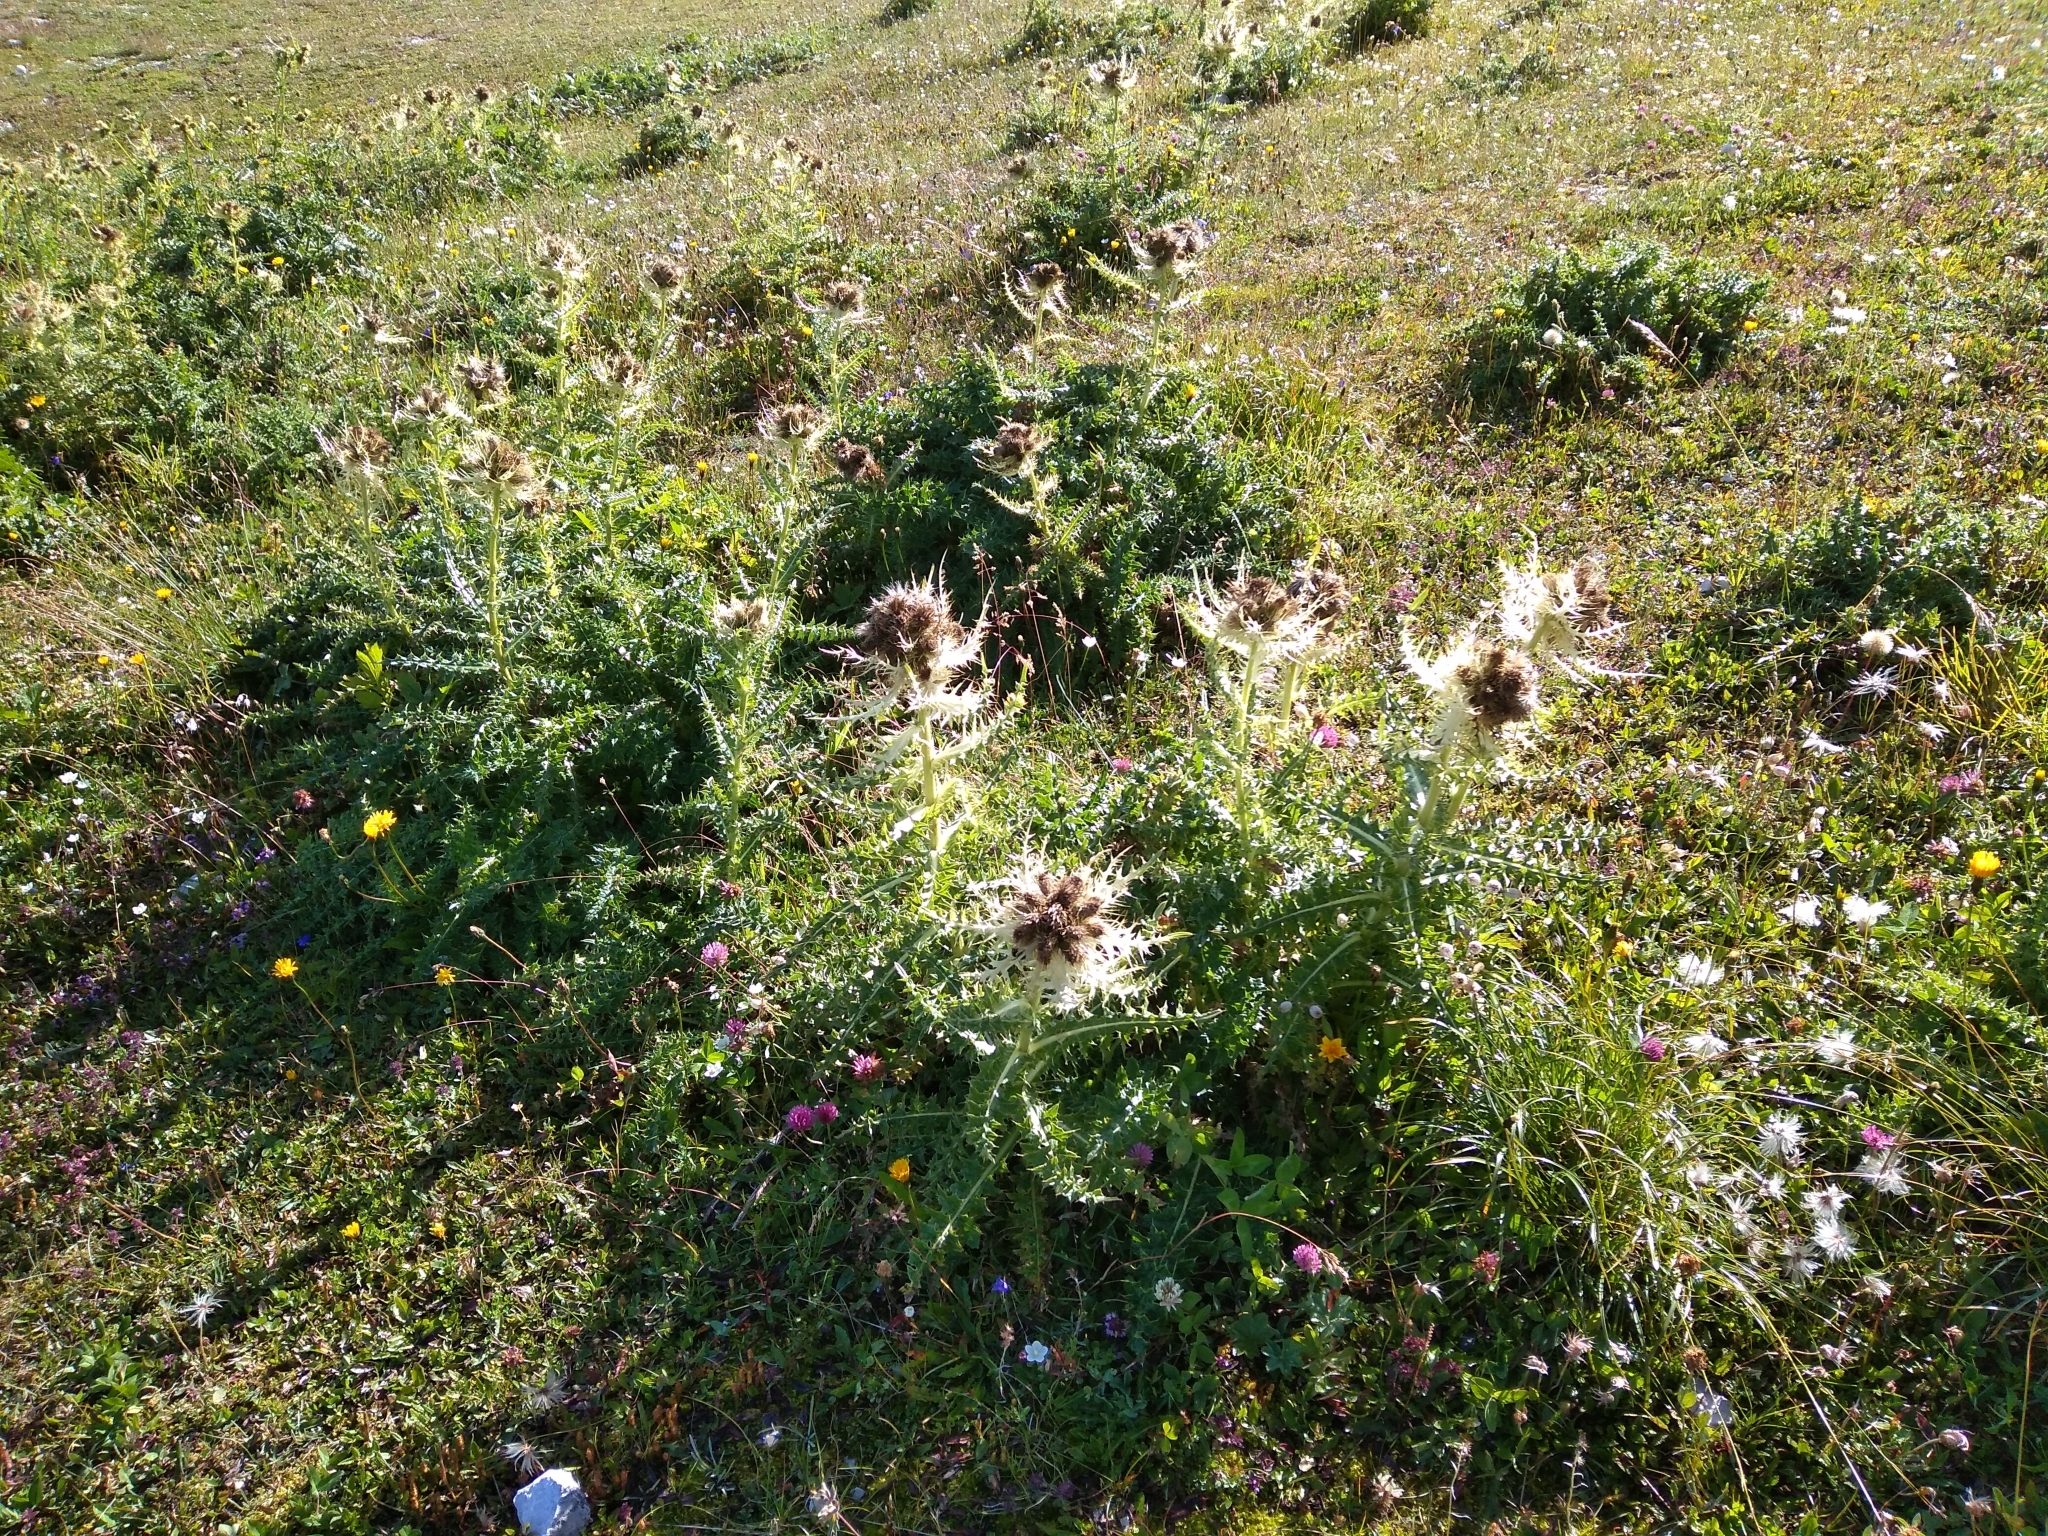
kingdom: Plantae
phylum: Tracheophyta
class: Magnoliopsida
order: Asterales
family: Asteraceae
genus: Cirsium
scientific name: Cirsium spinosissimum
